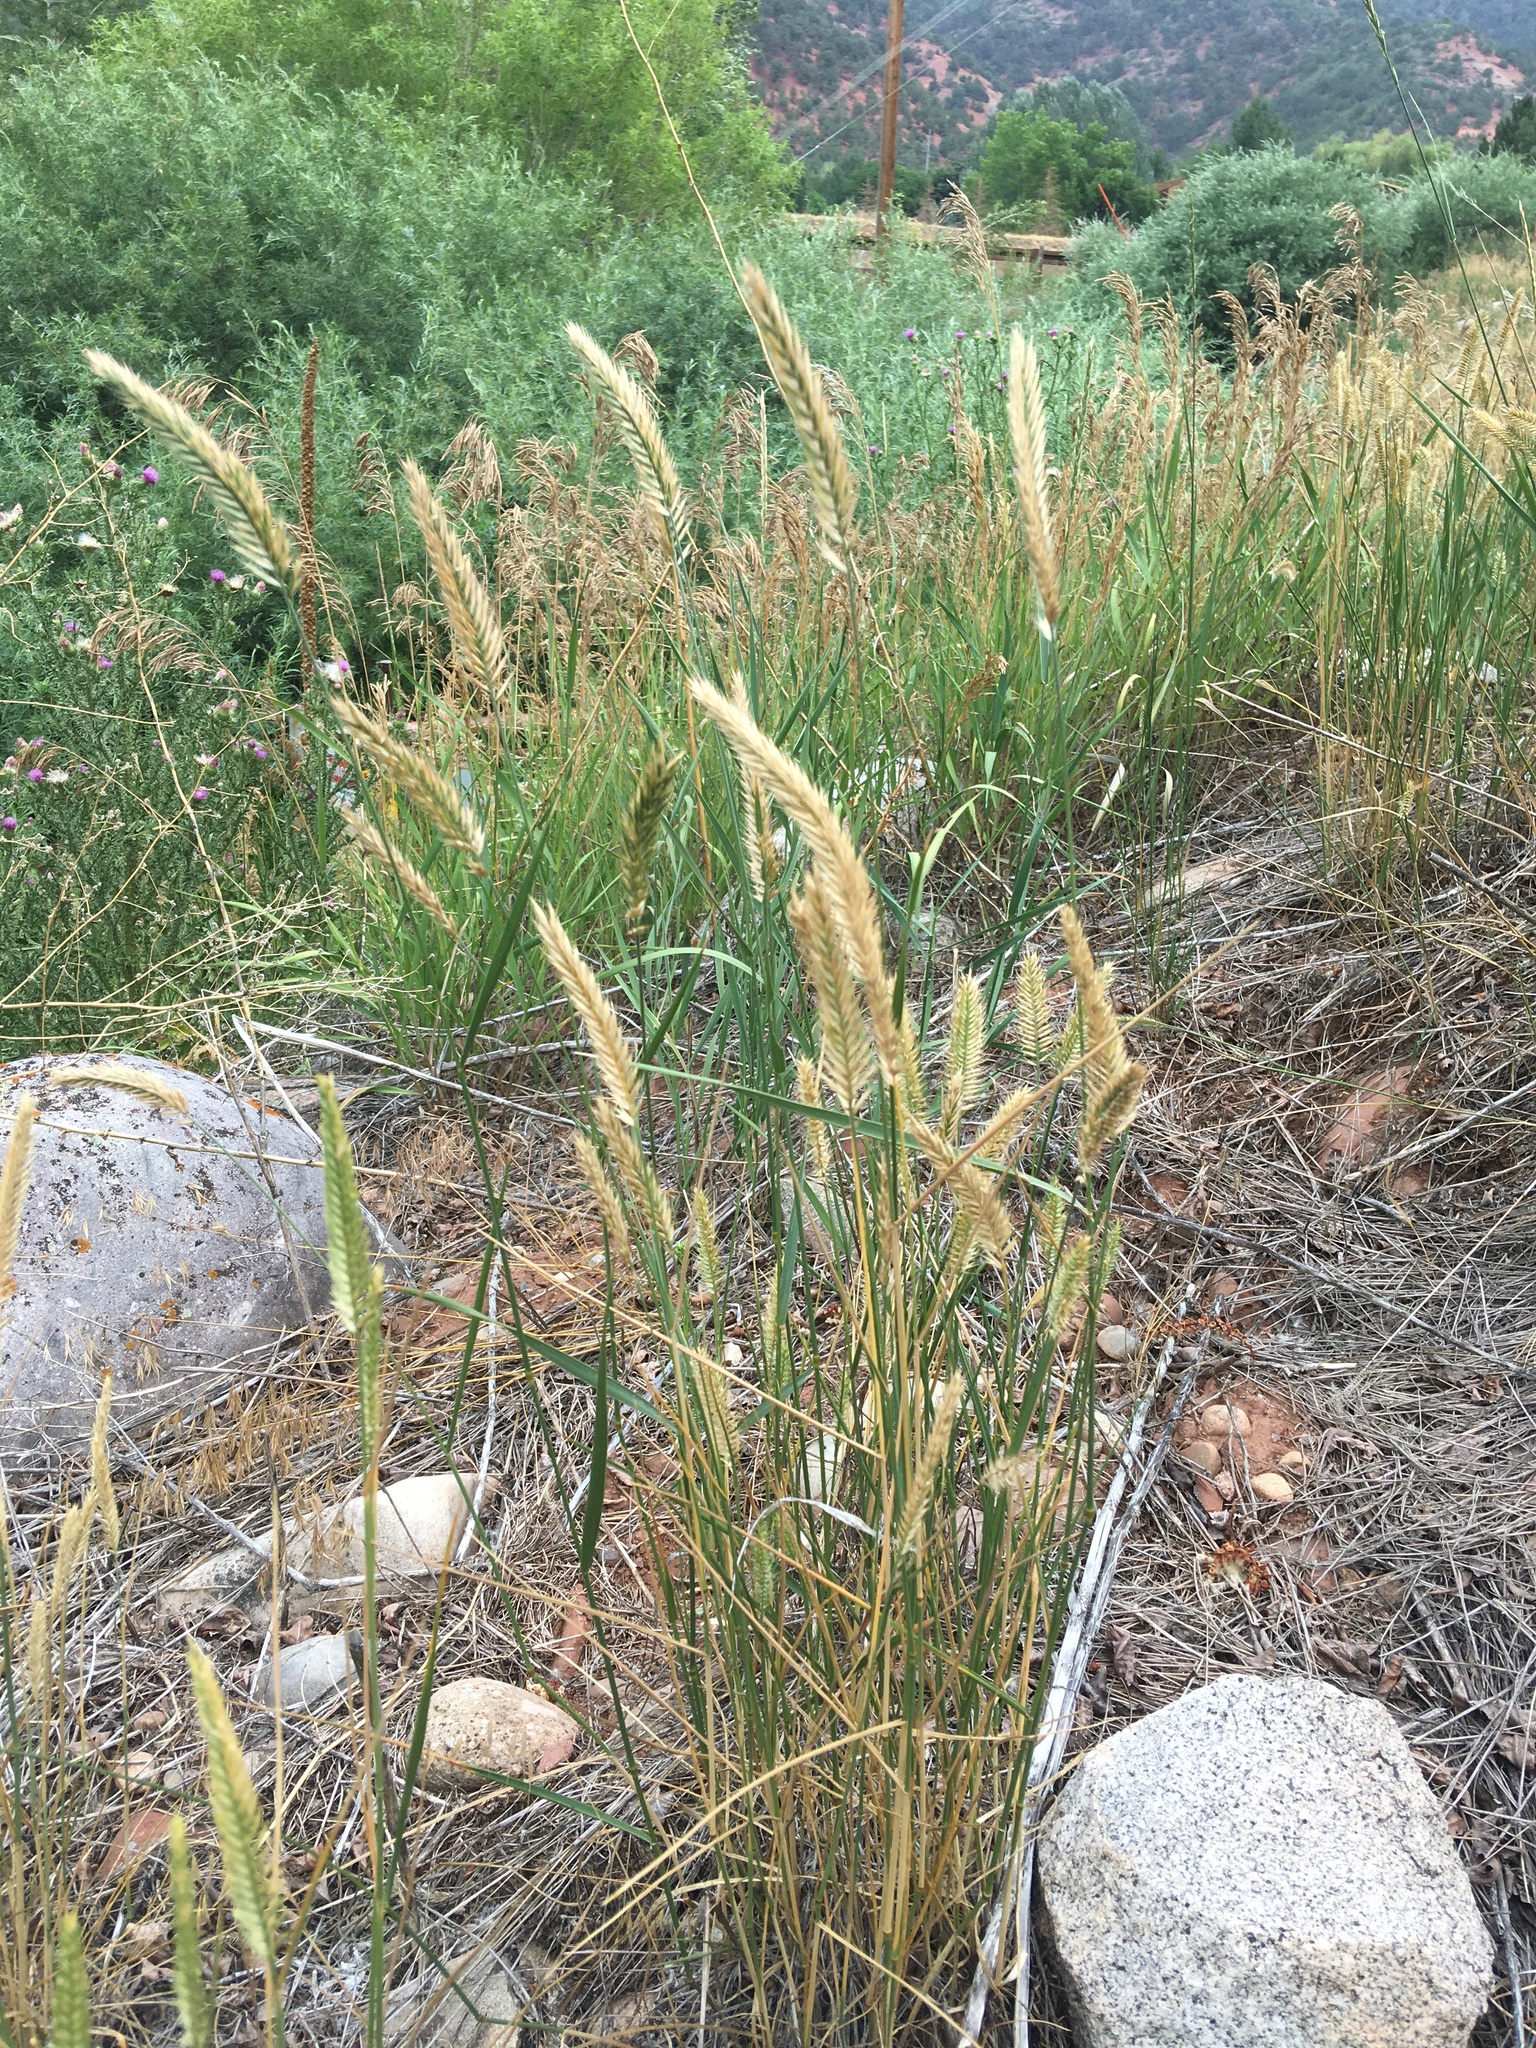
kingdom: Plantae
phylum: Tracheophyta
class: Liliopsida
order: Poales
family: Poaceae
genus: Agropyron
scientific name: Agropyron cristatum
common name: Crested wheatgrass
